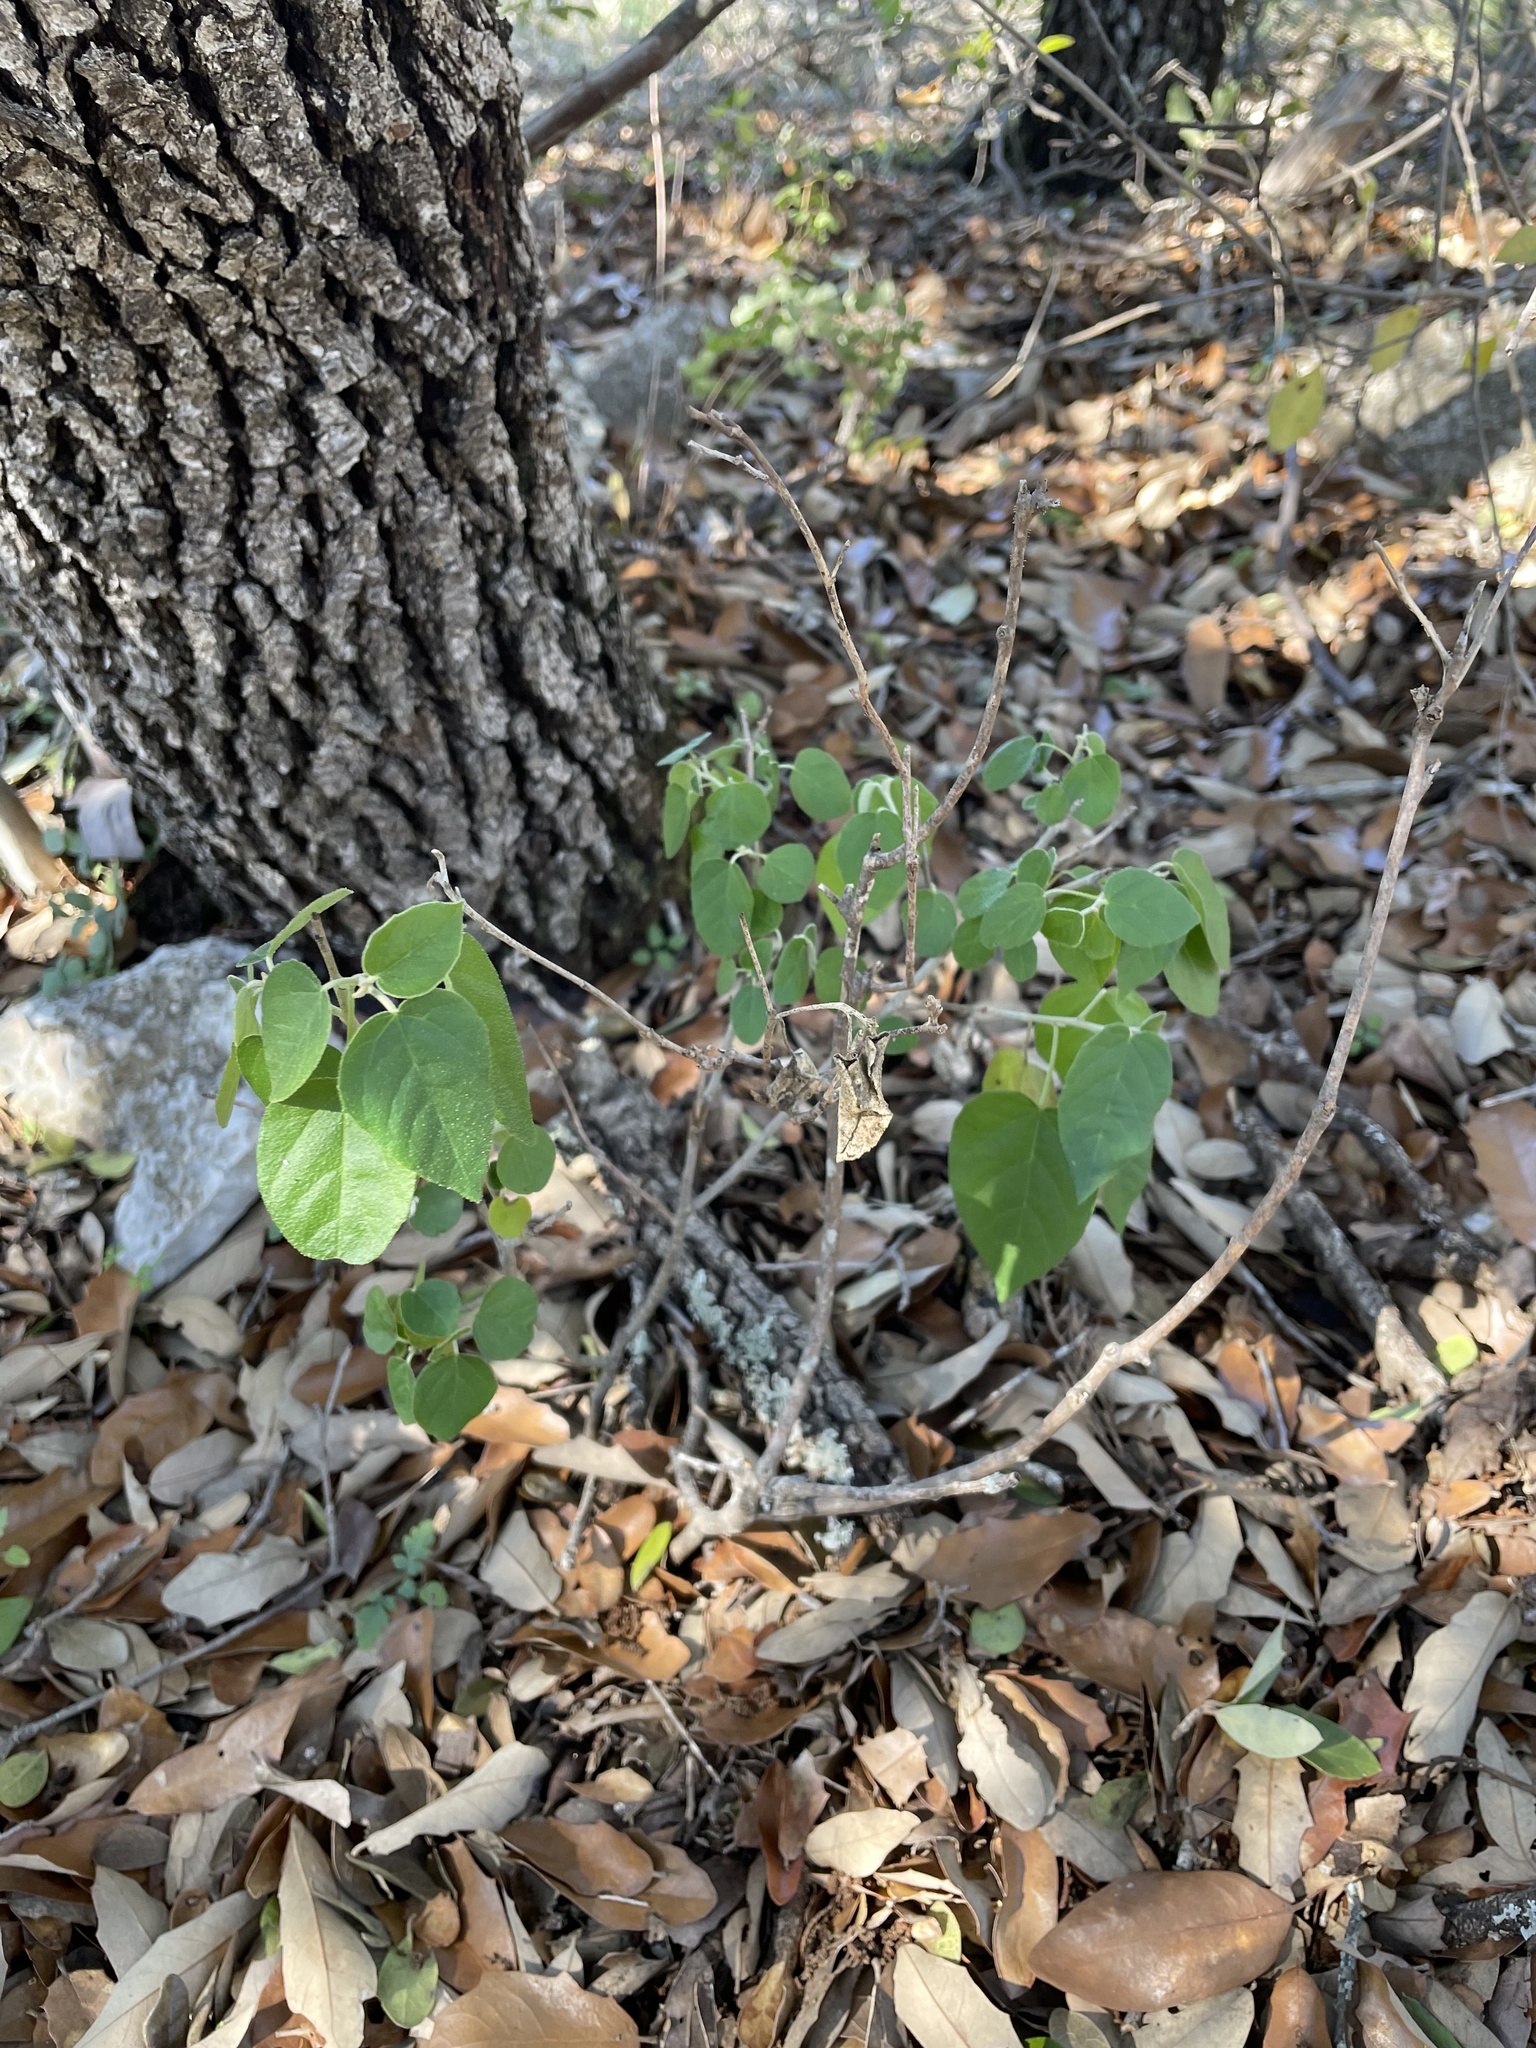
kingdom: Plantae
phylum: Tracheophyta
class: Magnoliopsida
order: Malpighiales
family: Euphorbiaceae
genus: Croton
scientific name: Croton fruticulosus
